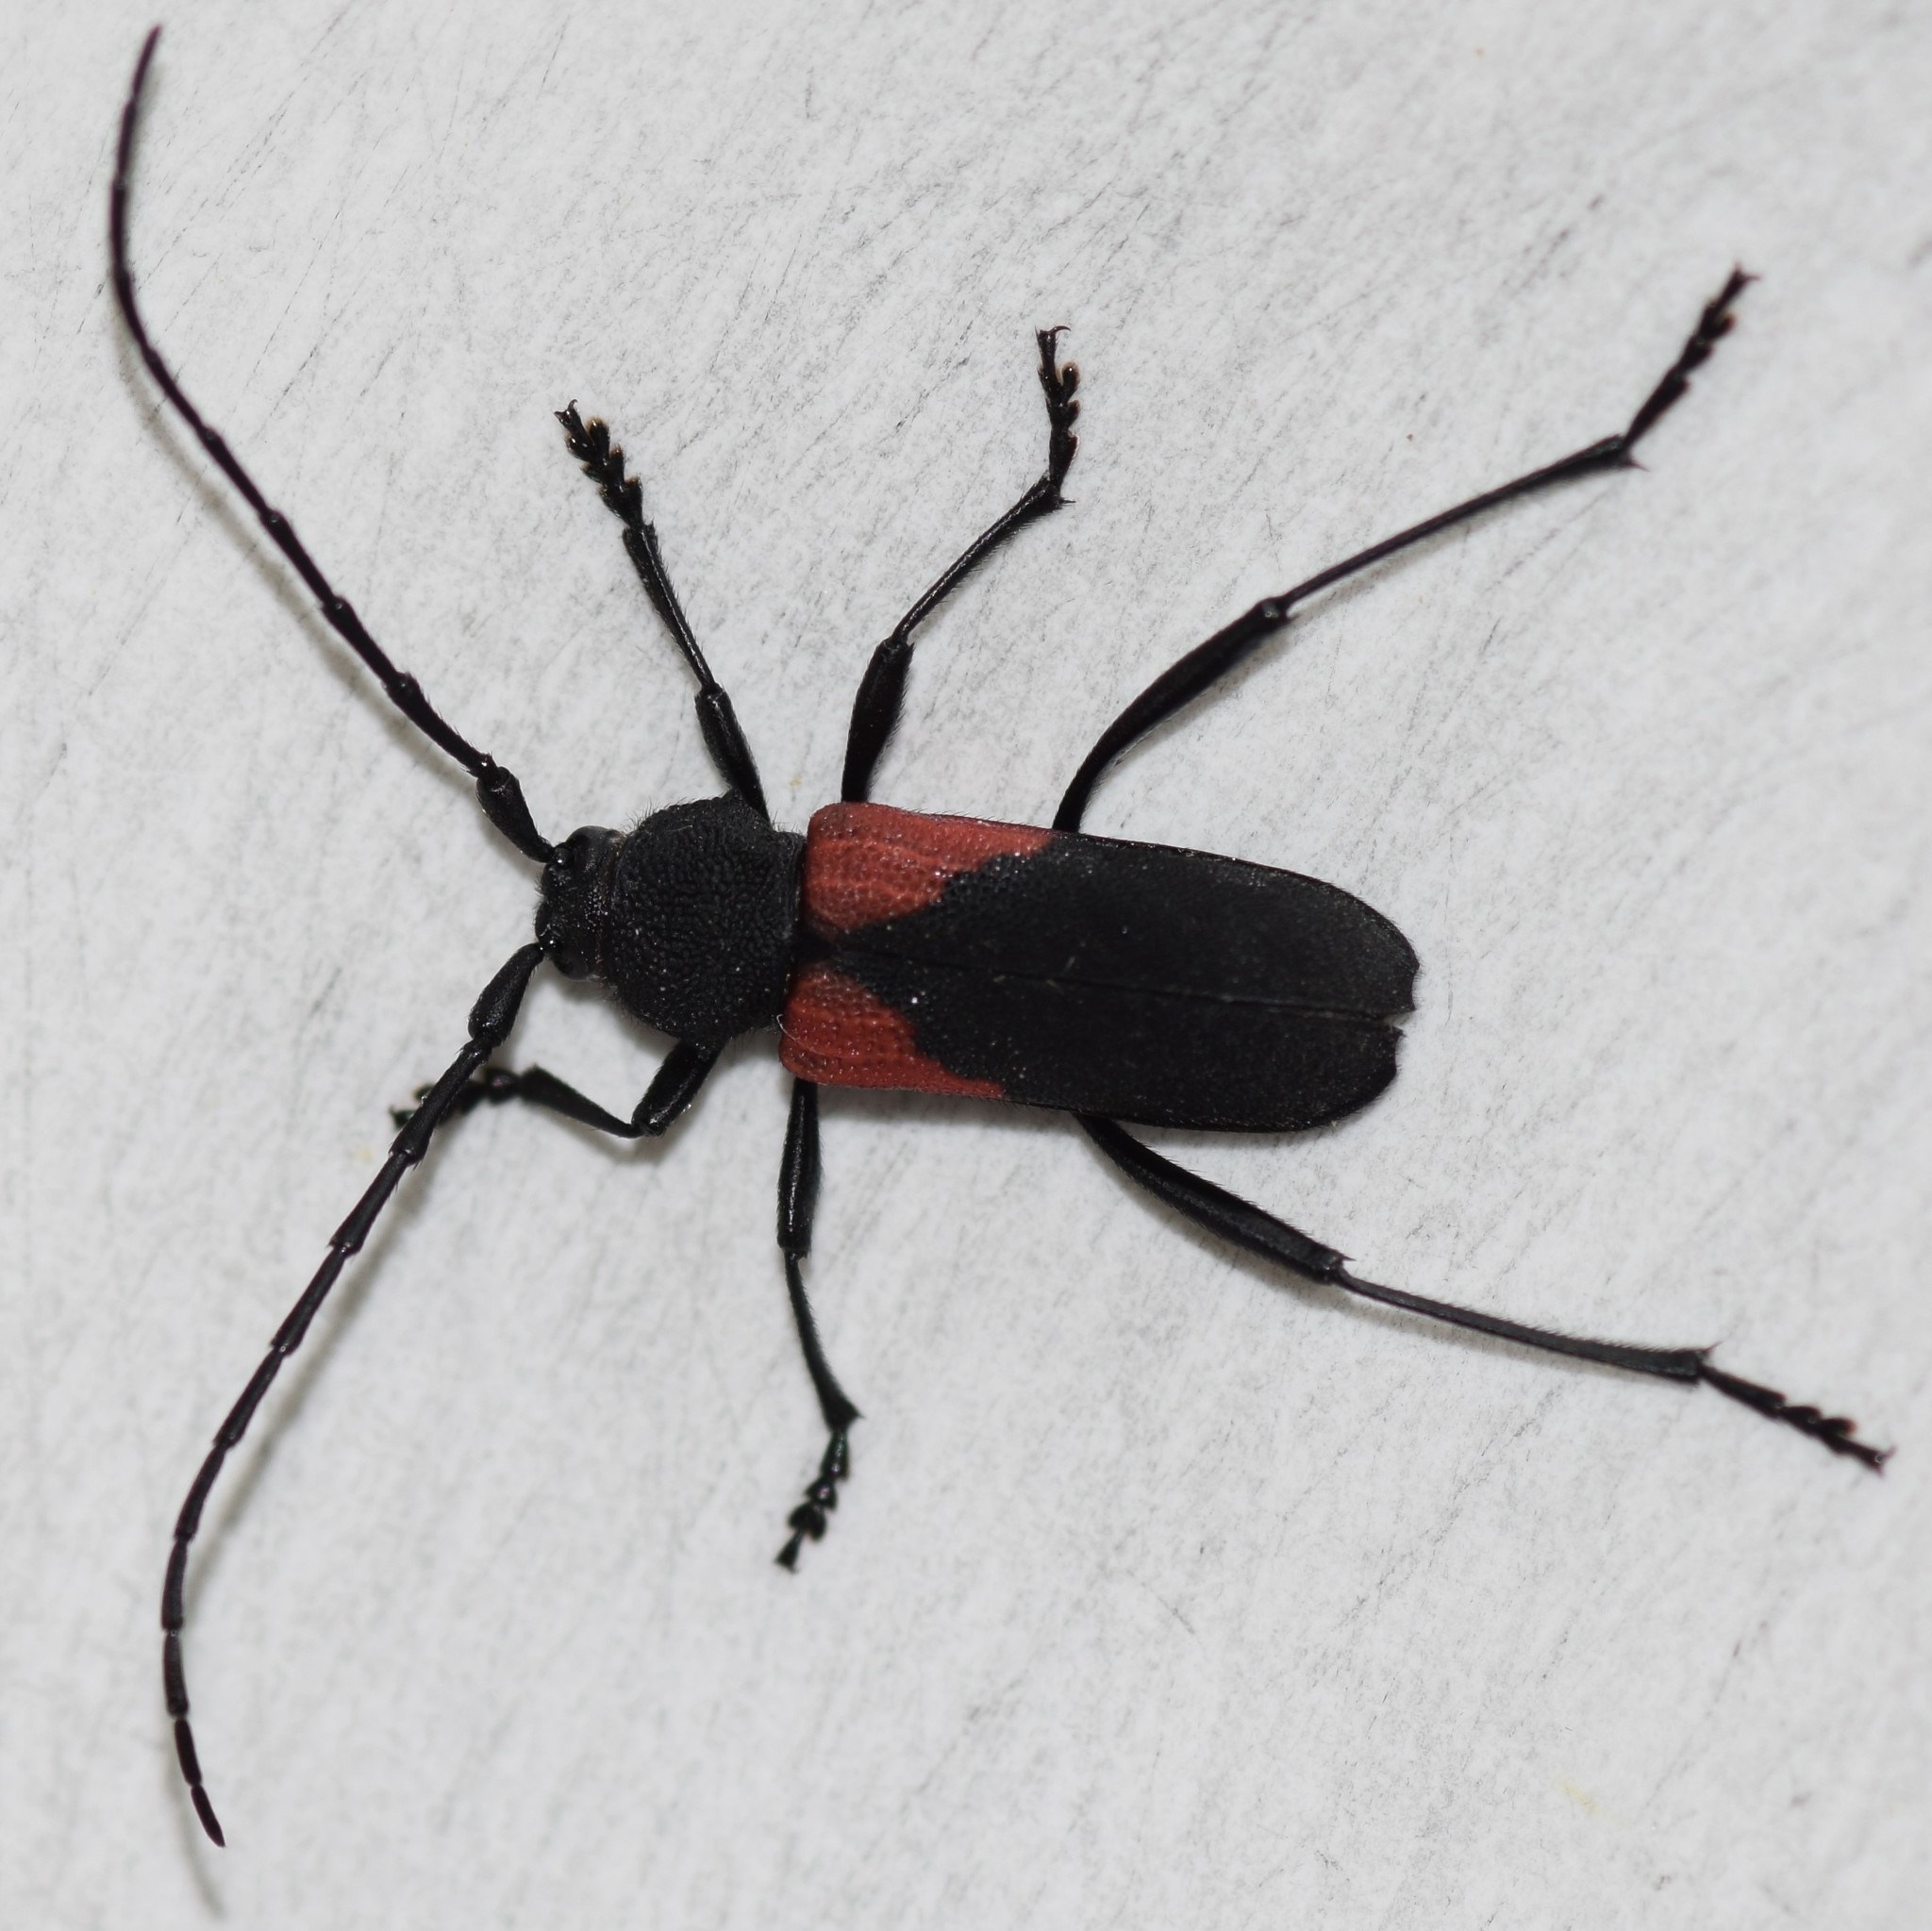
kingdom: Animalia
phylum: Arthropoda
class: Insecta
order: Coleoptera
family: Cerambycidae
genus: Purpuricenus
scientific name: Purpuricenus humeralis
